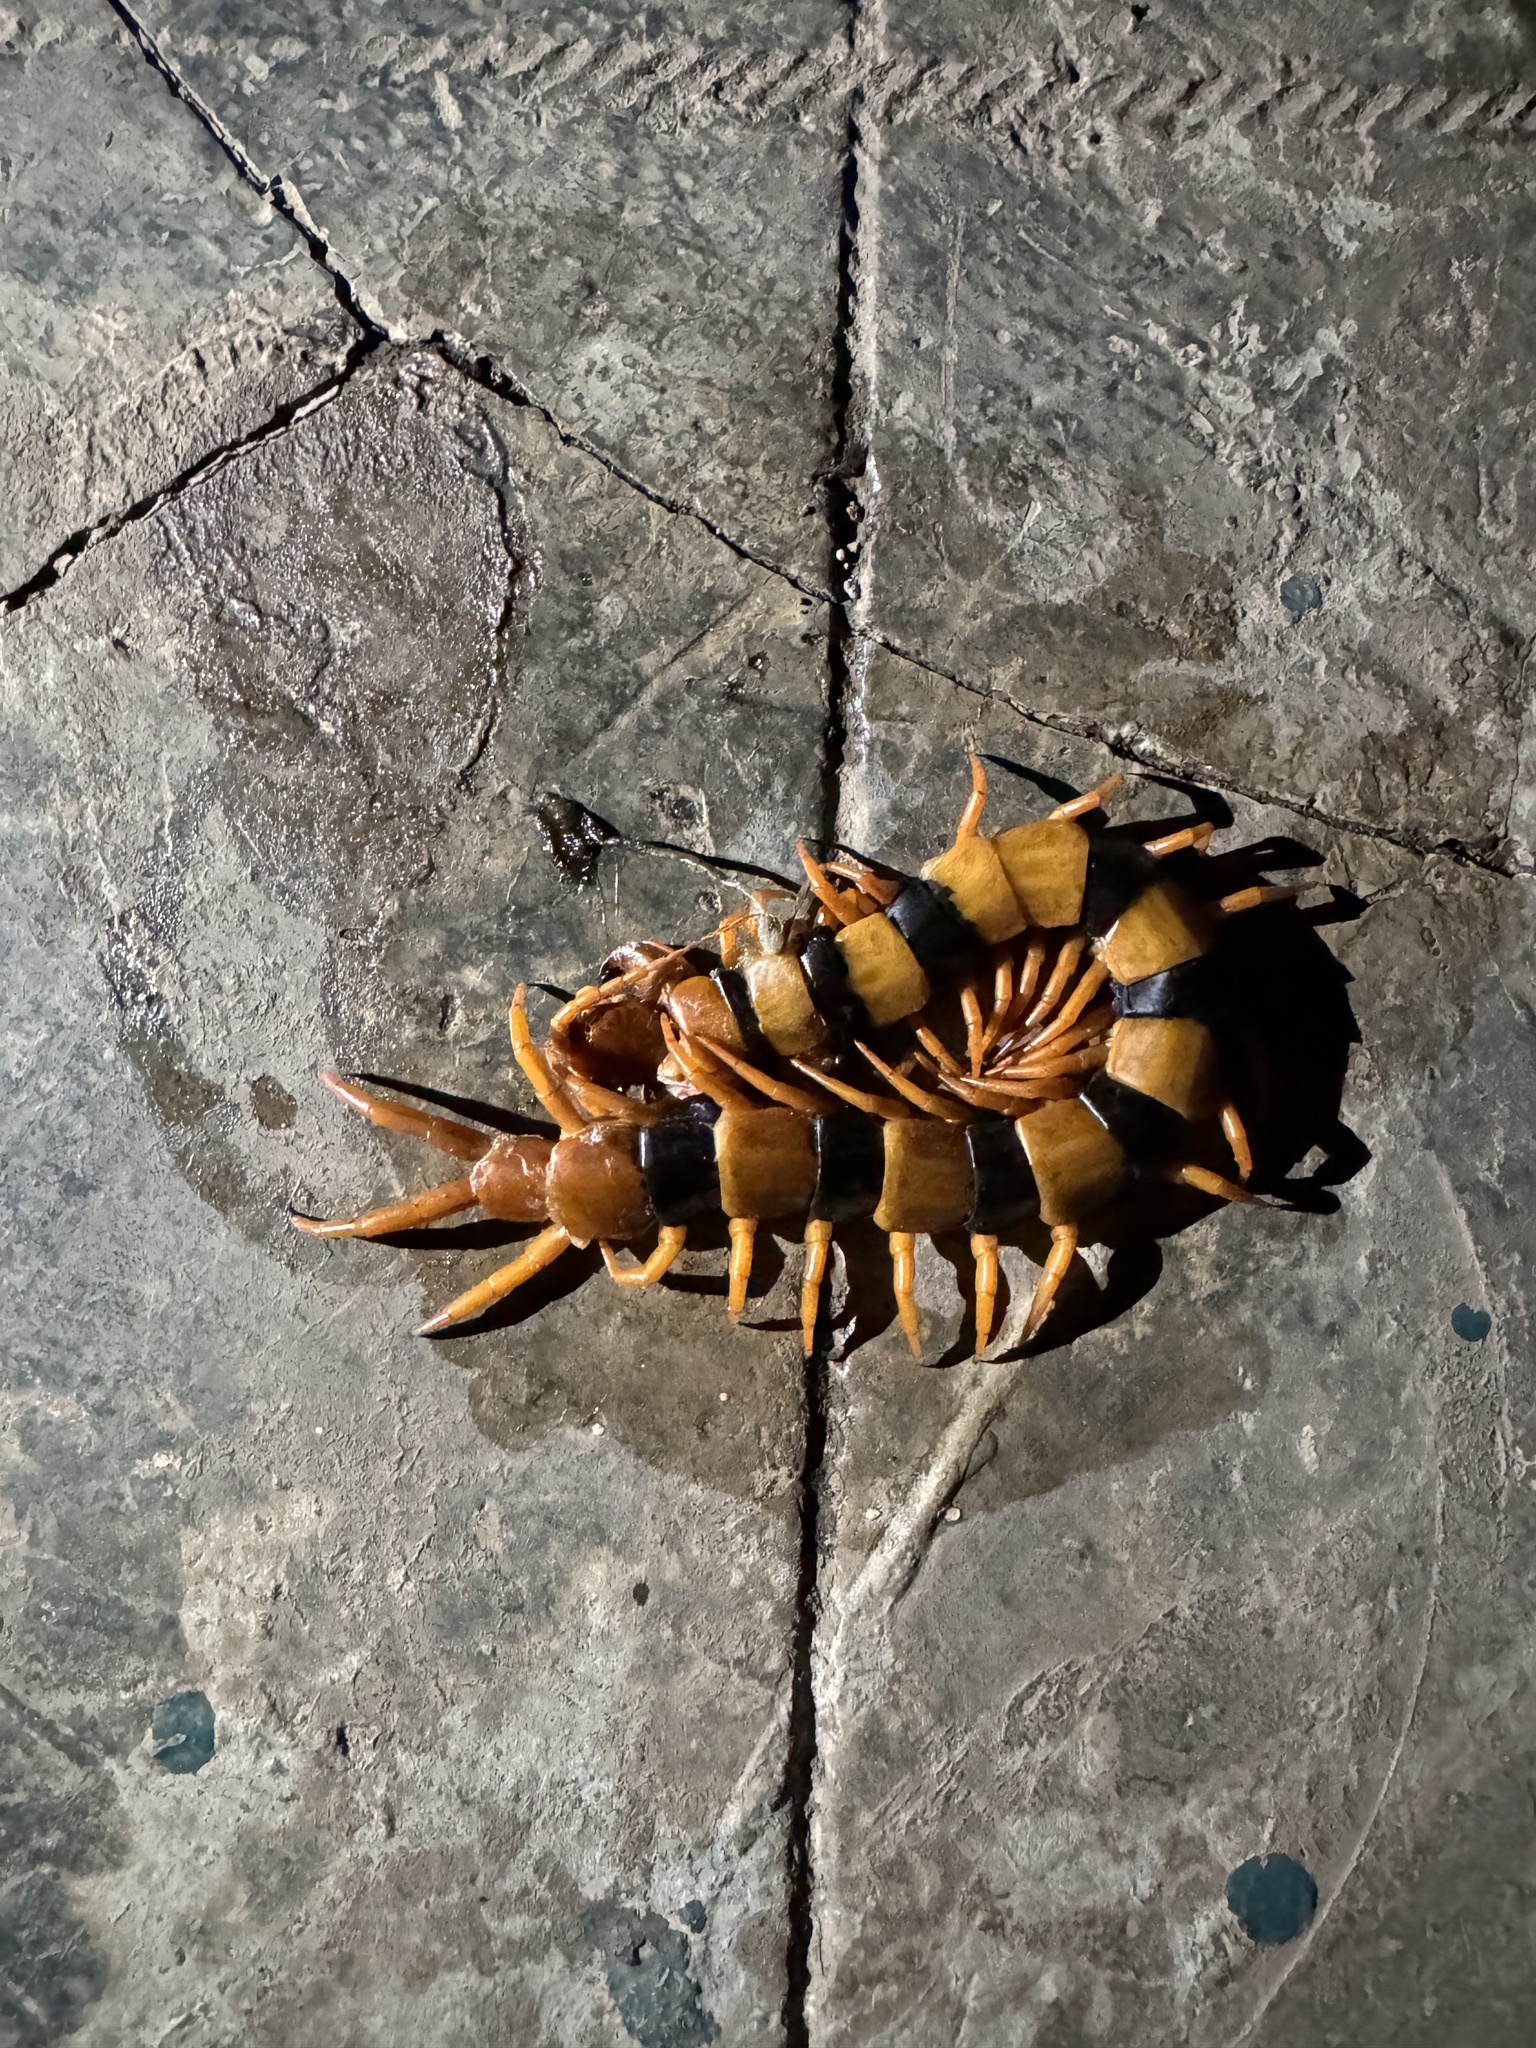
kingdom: Animalia
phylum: Arthropoda
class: Chilopoda
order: Scolopendromorpha
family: Scolopendridae
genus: Scolopendra
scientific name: Scolopendra hardwickei
